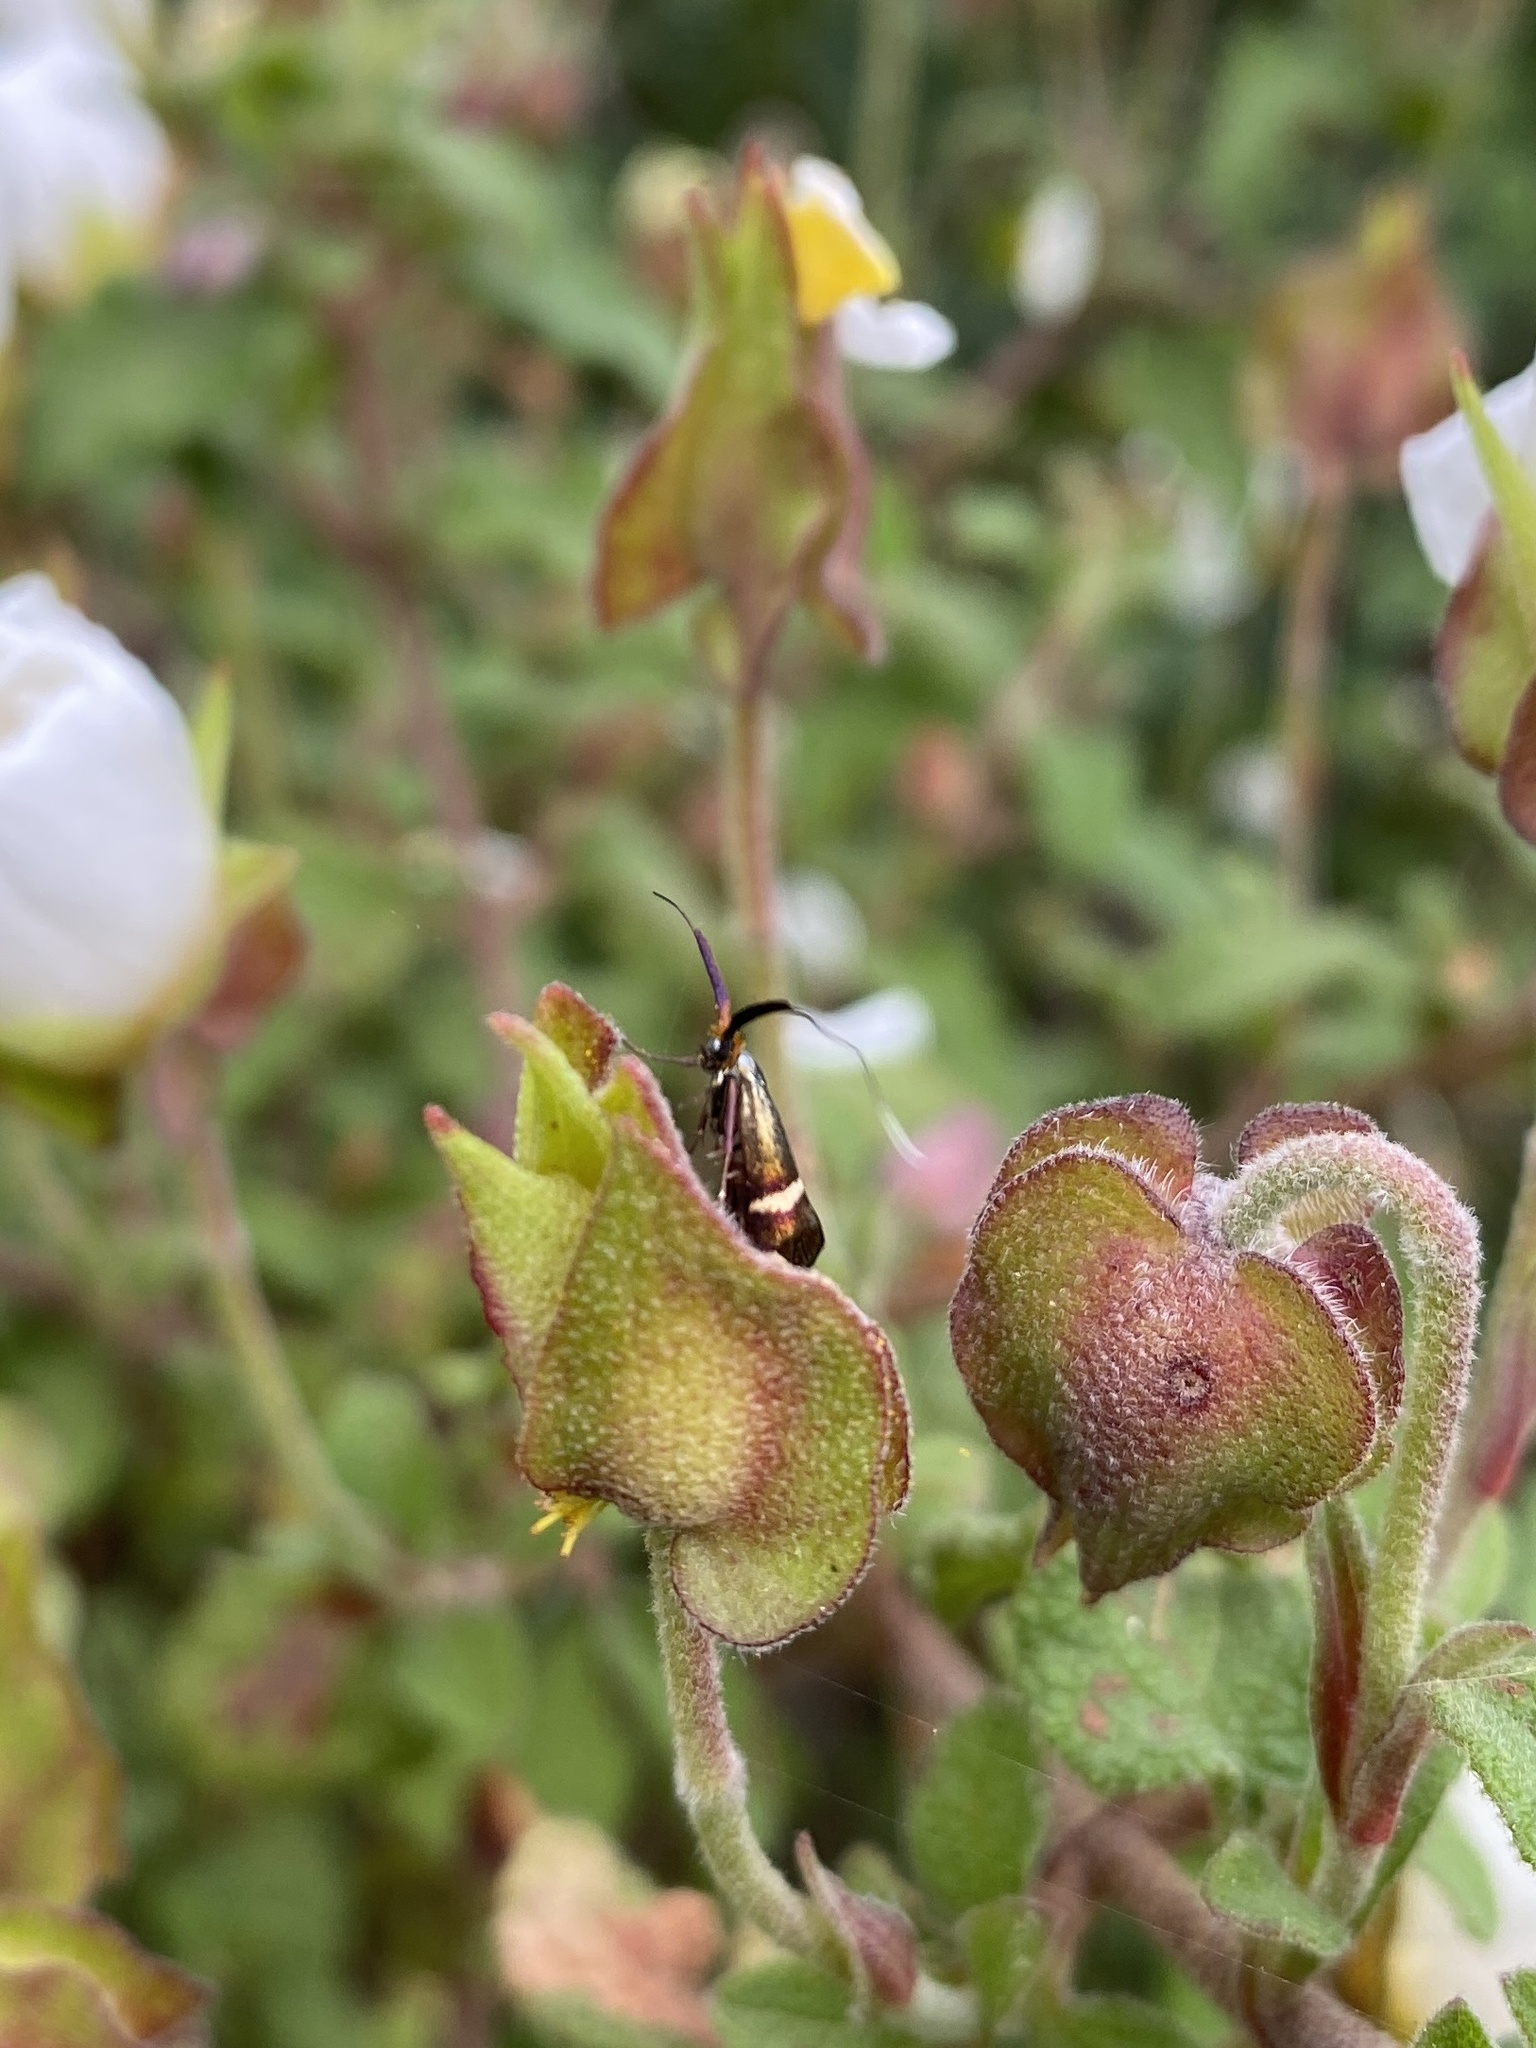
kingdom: Animalia
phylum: Arthropoda
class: Insecta
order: Lepidoptera
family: Adelidae
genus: Adela
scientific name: Adela australis
